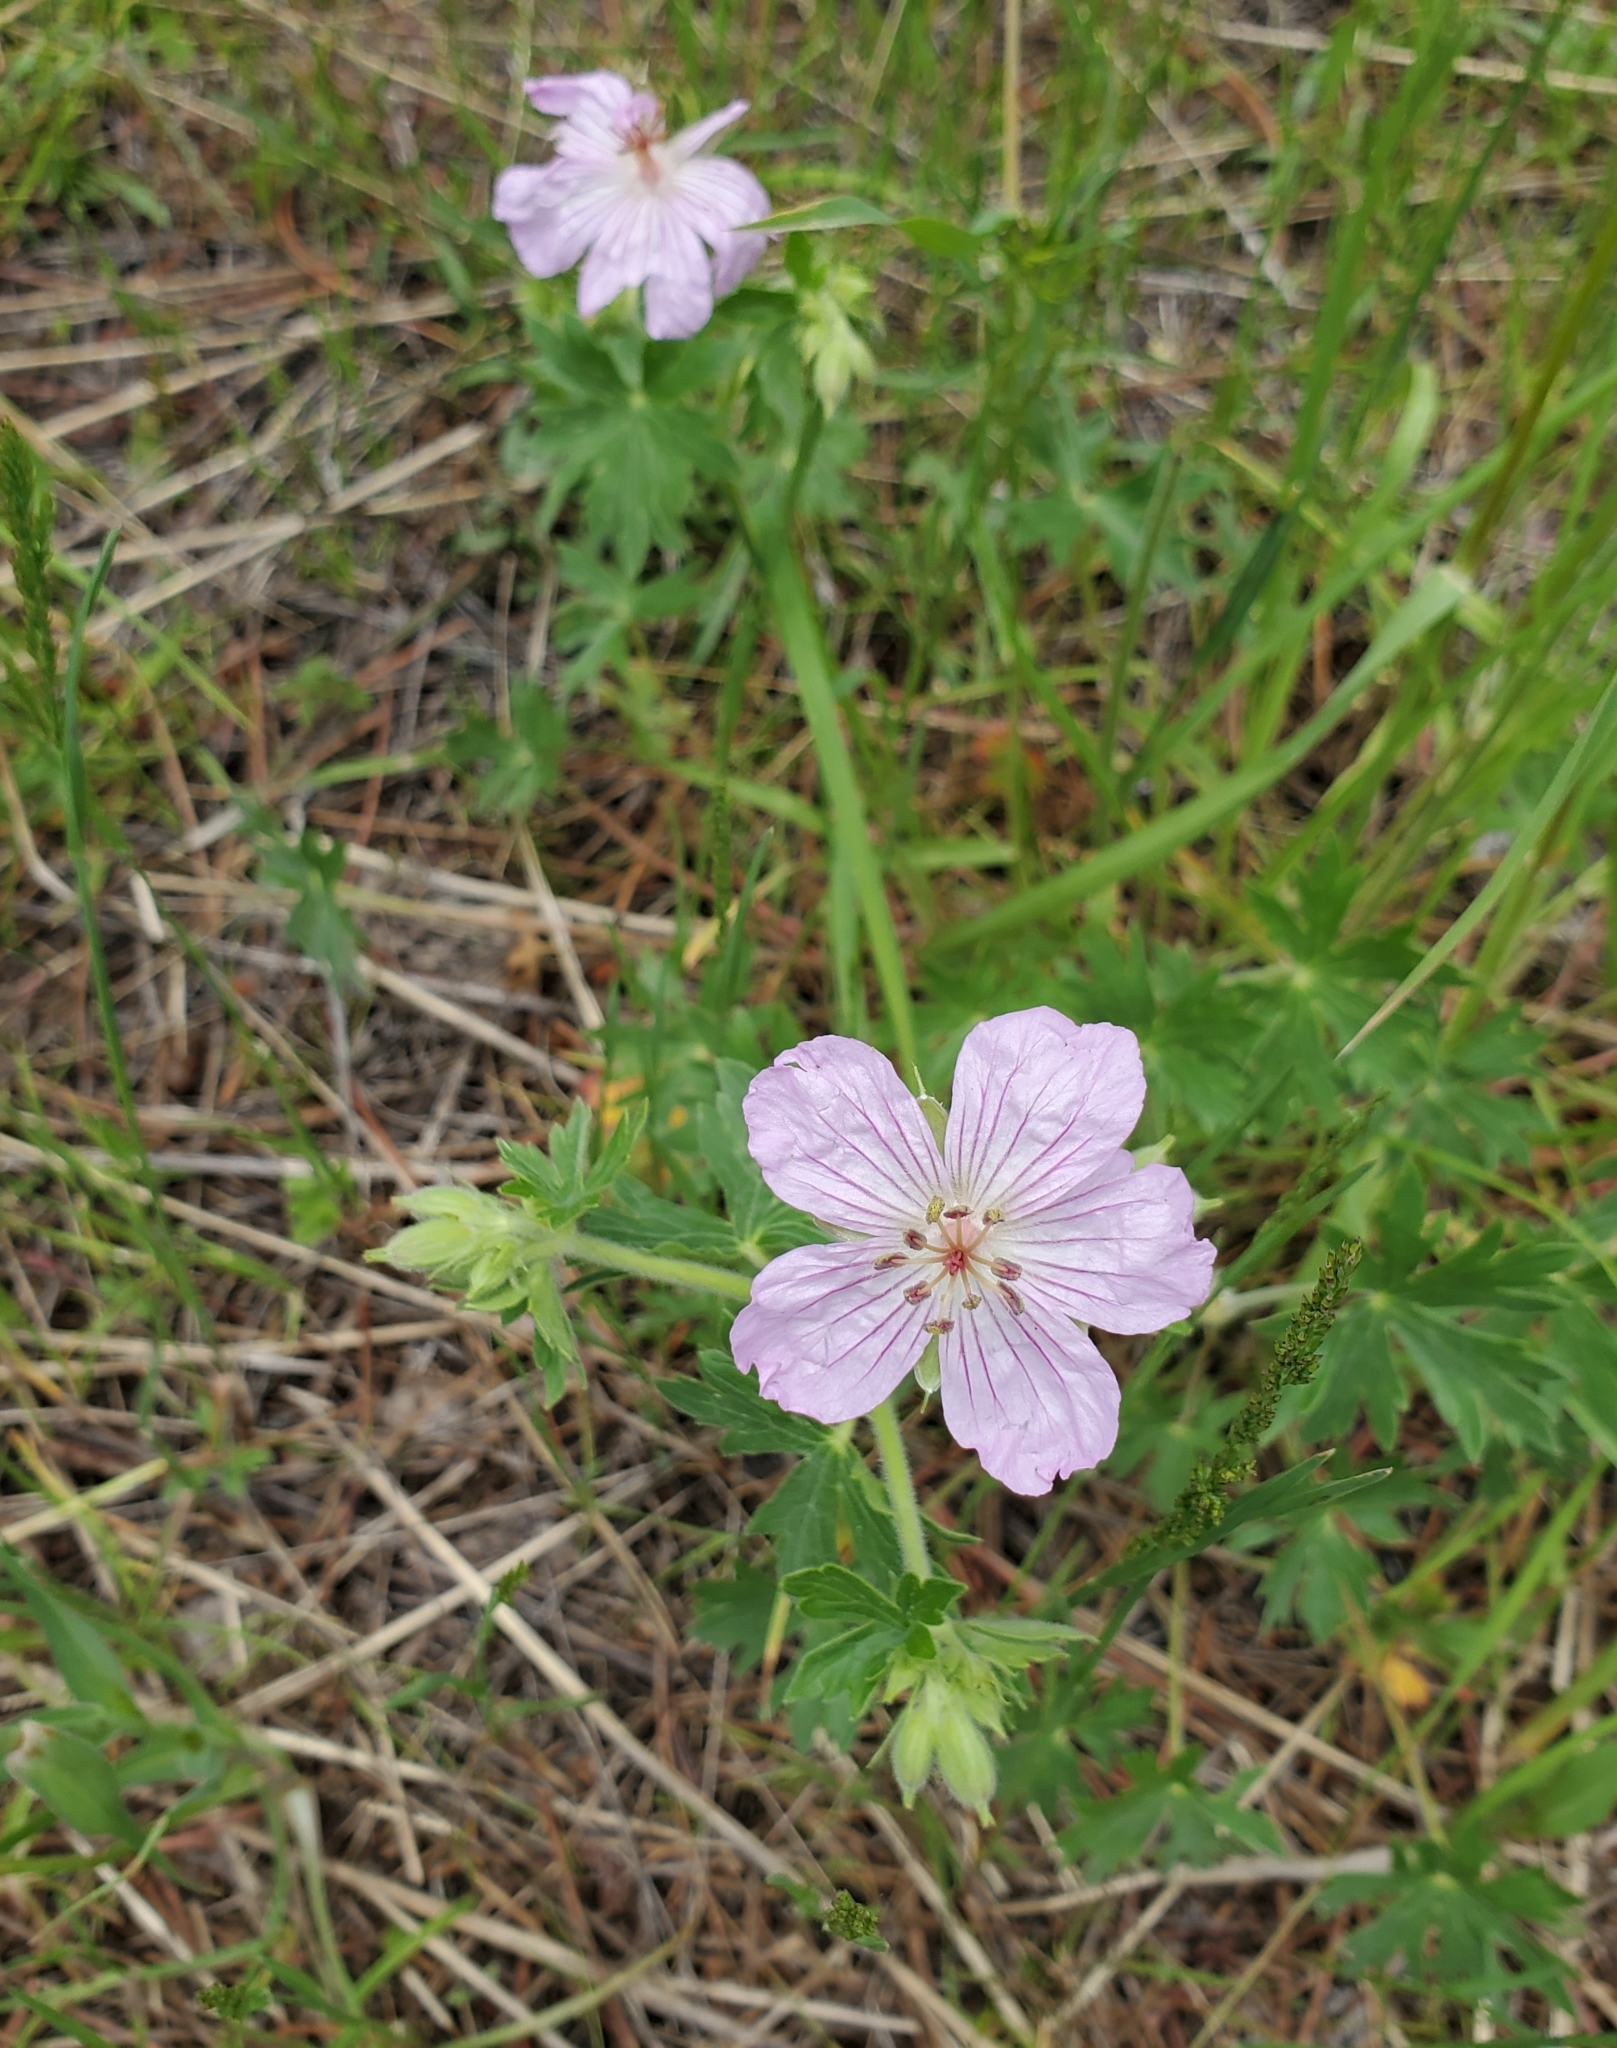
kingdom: Plantae
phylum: Tracheophyta
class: Magnoliopsida
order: Geraniales
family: Geraniaceae
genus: Geranium
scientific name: Geranium caespitosum
